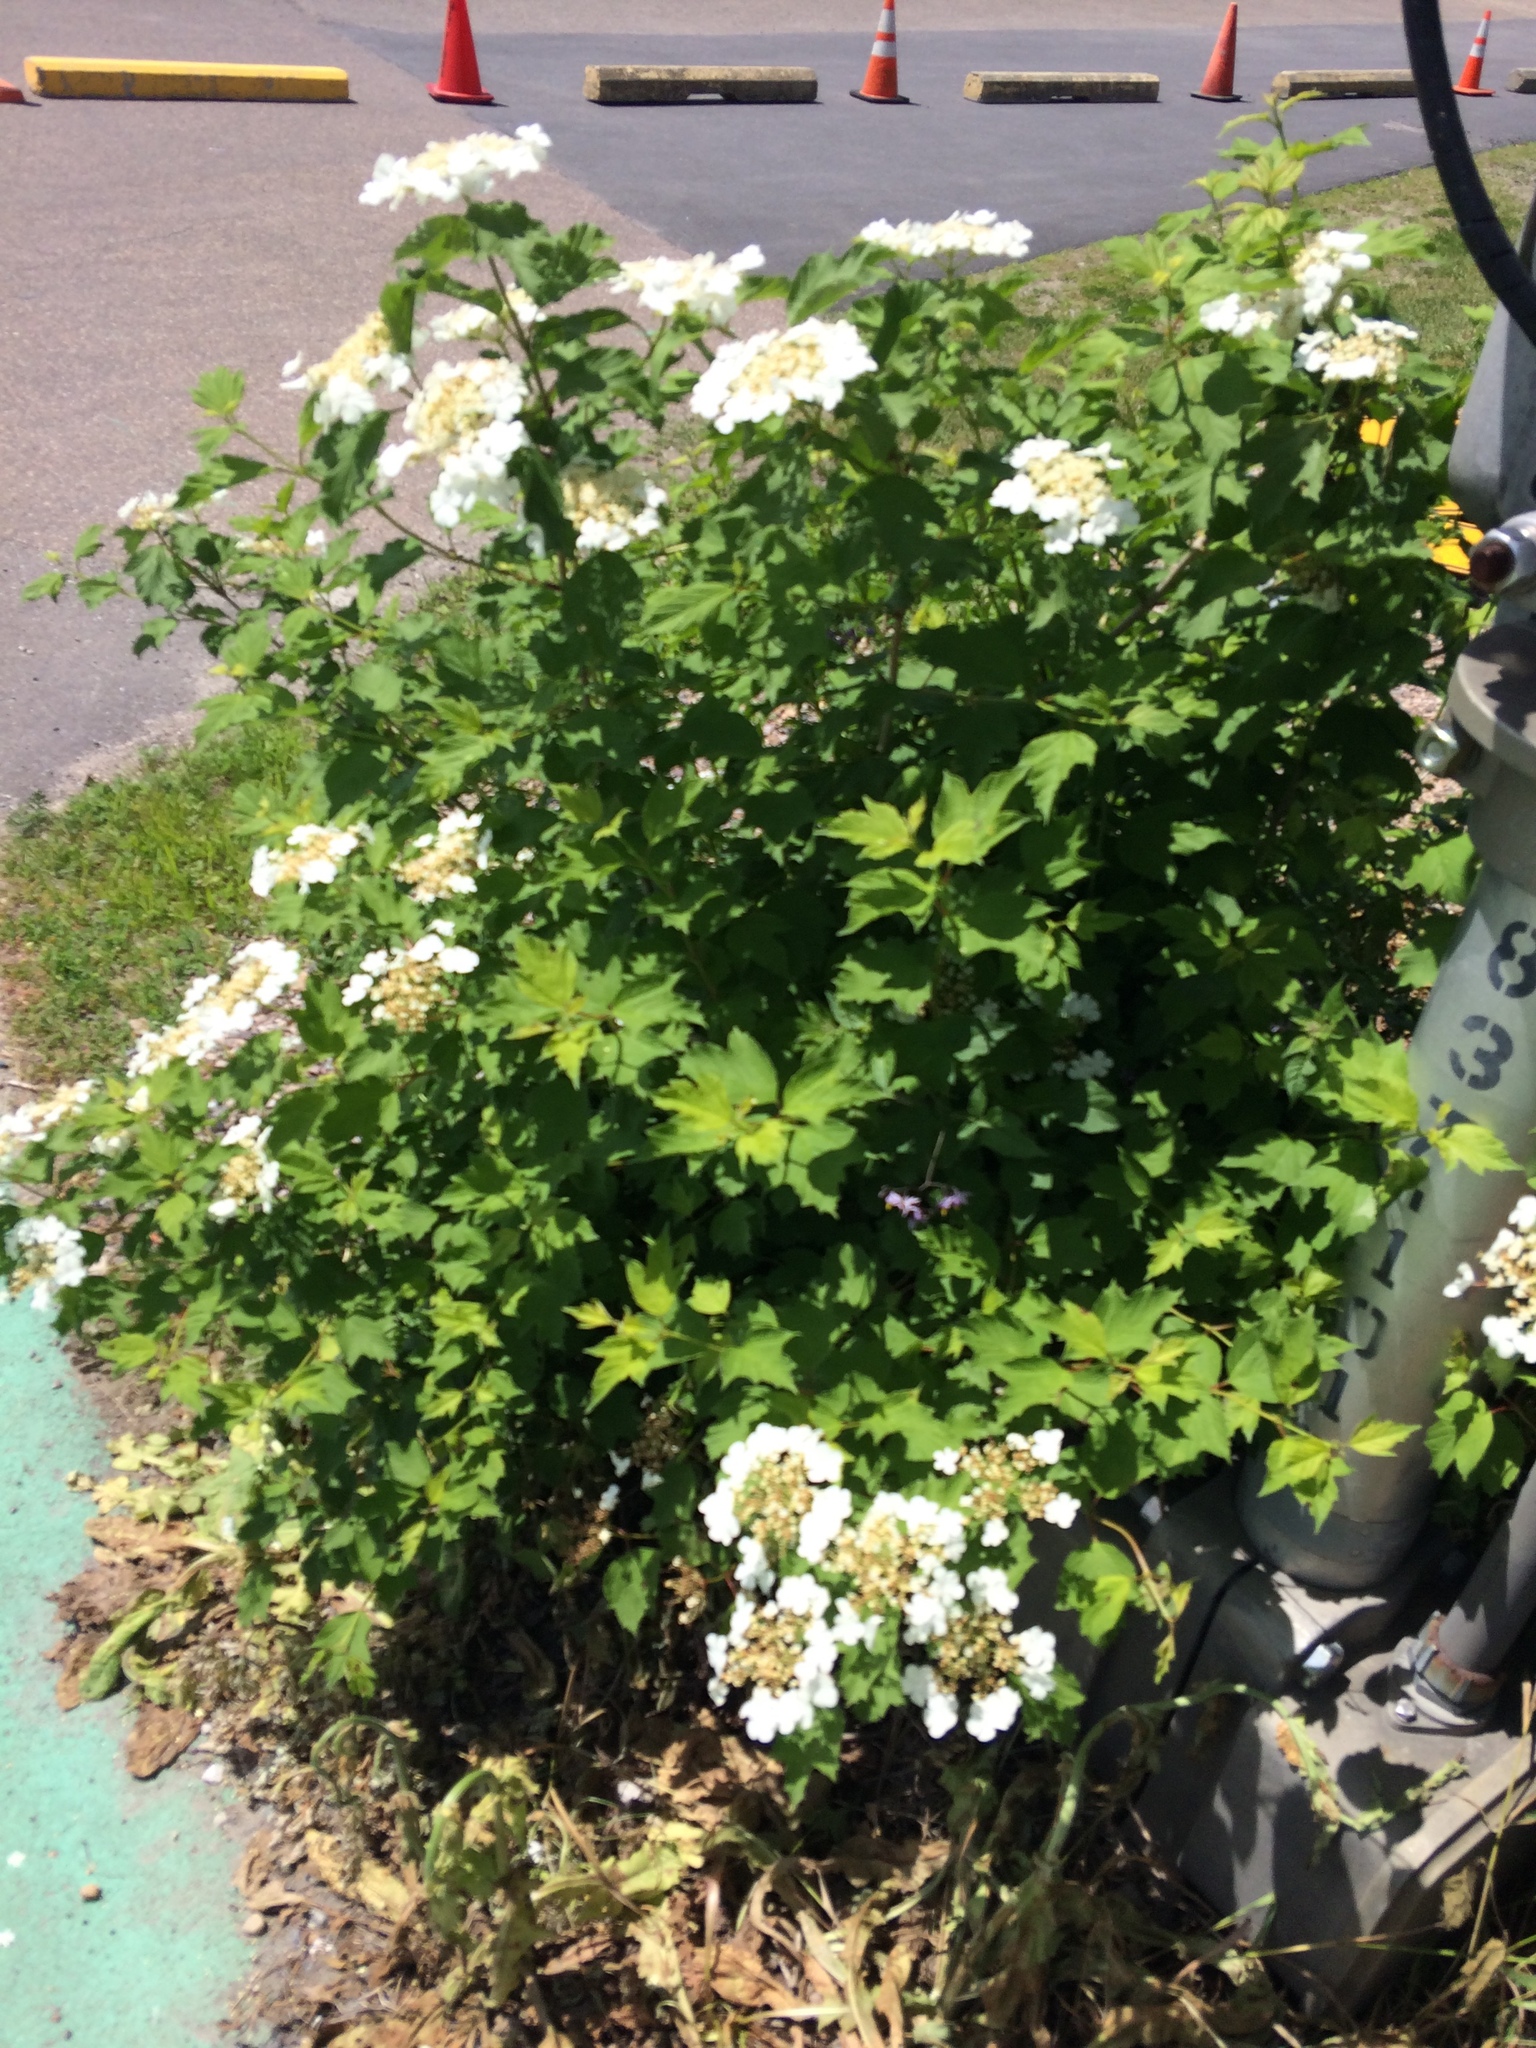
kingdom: Plantae
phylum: Tracheophyta
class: Magnoliopsida
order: Dipsacales
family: Viburnaceae
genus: Viburnum
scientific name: Viburnum opulus
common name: Guelder-rose
